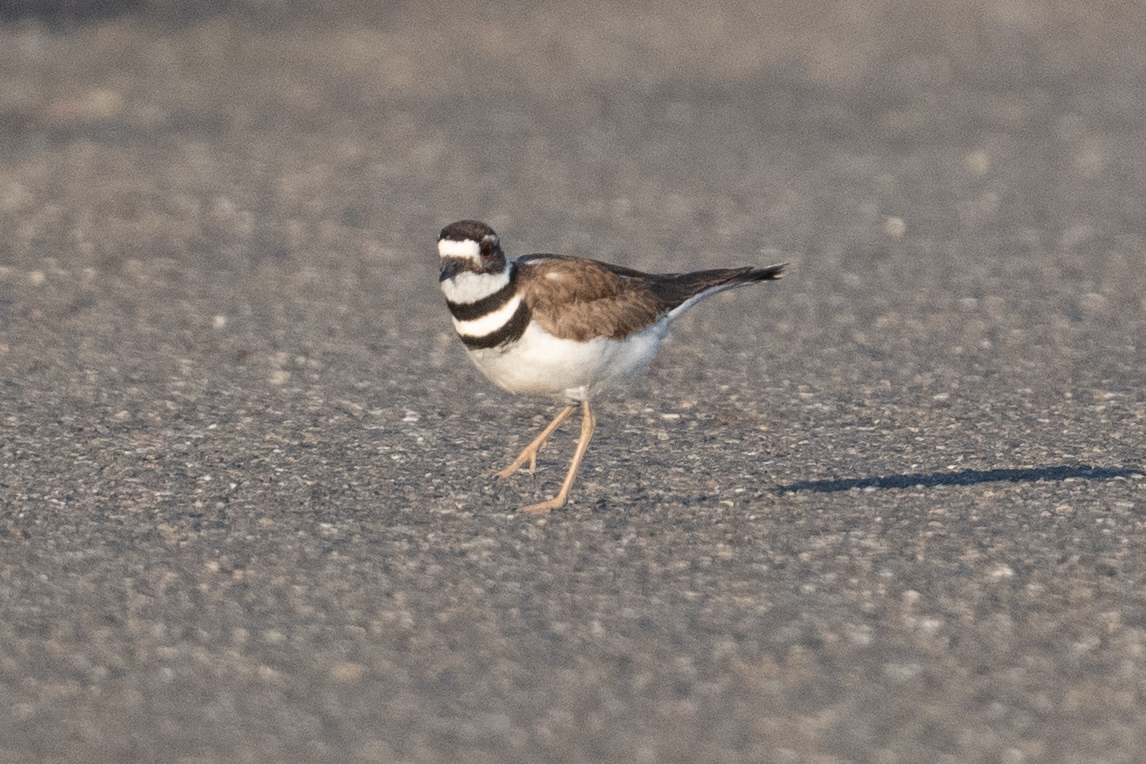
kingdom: Animalia
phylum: Chordata
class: Aves
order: Charadriiformes
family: Charadriidae
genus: Charadrius
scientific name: Charadrius vociferus
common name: Killdeer
